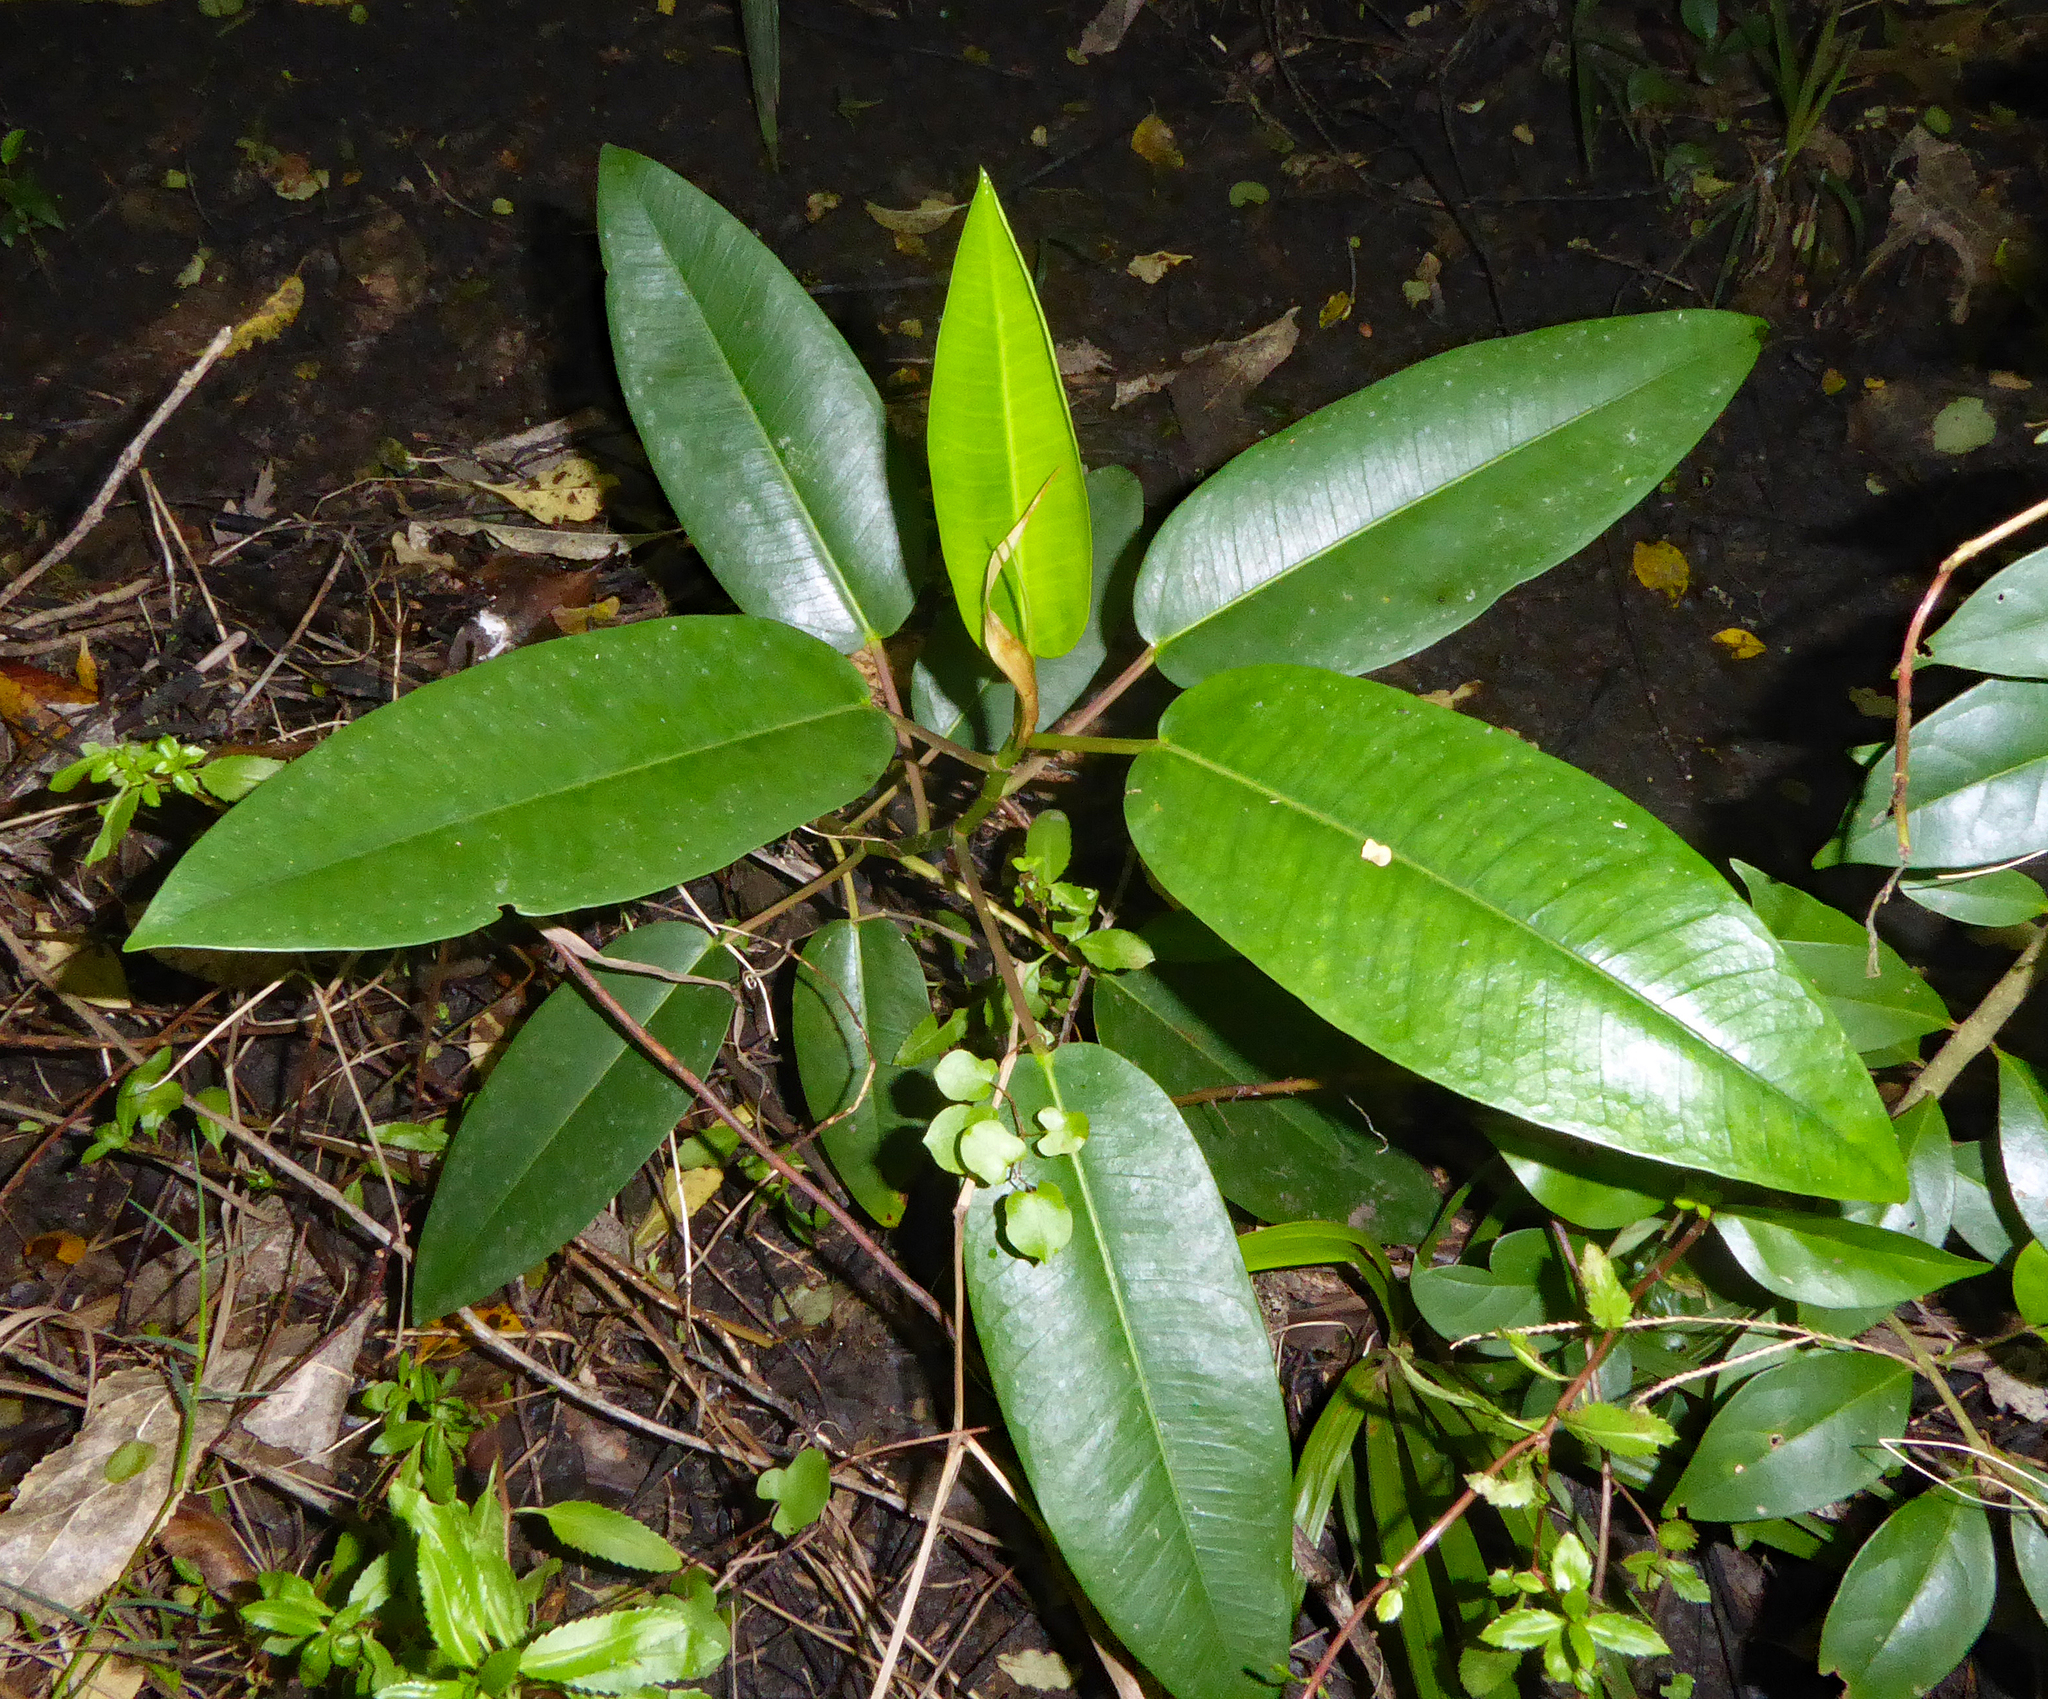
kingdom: Plantae
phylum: Tracheophyta
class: Magnoliopsida
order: Rosales
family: Moraceae
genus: Ficus
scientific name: Ficus macrophylla
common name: Moreton bay fig
